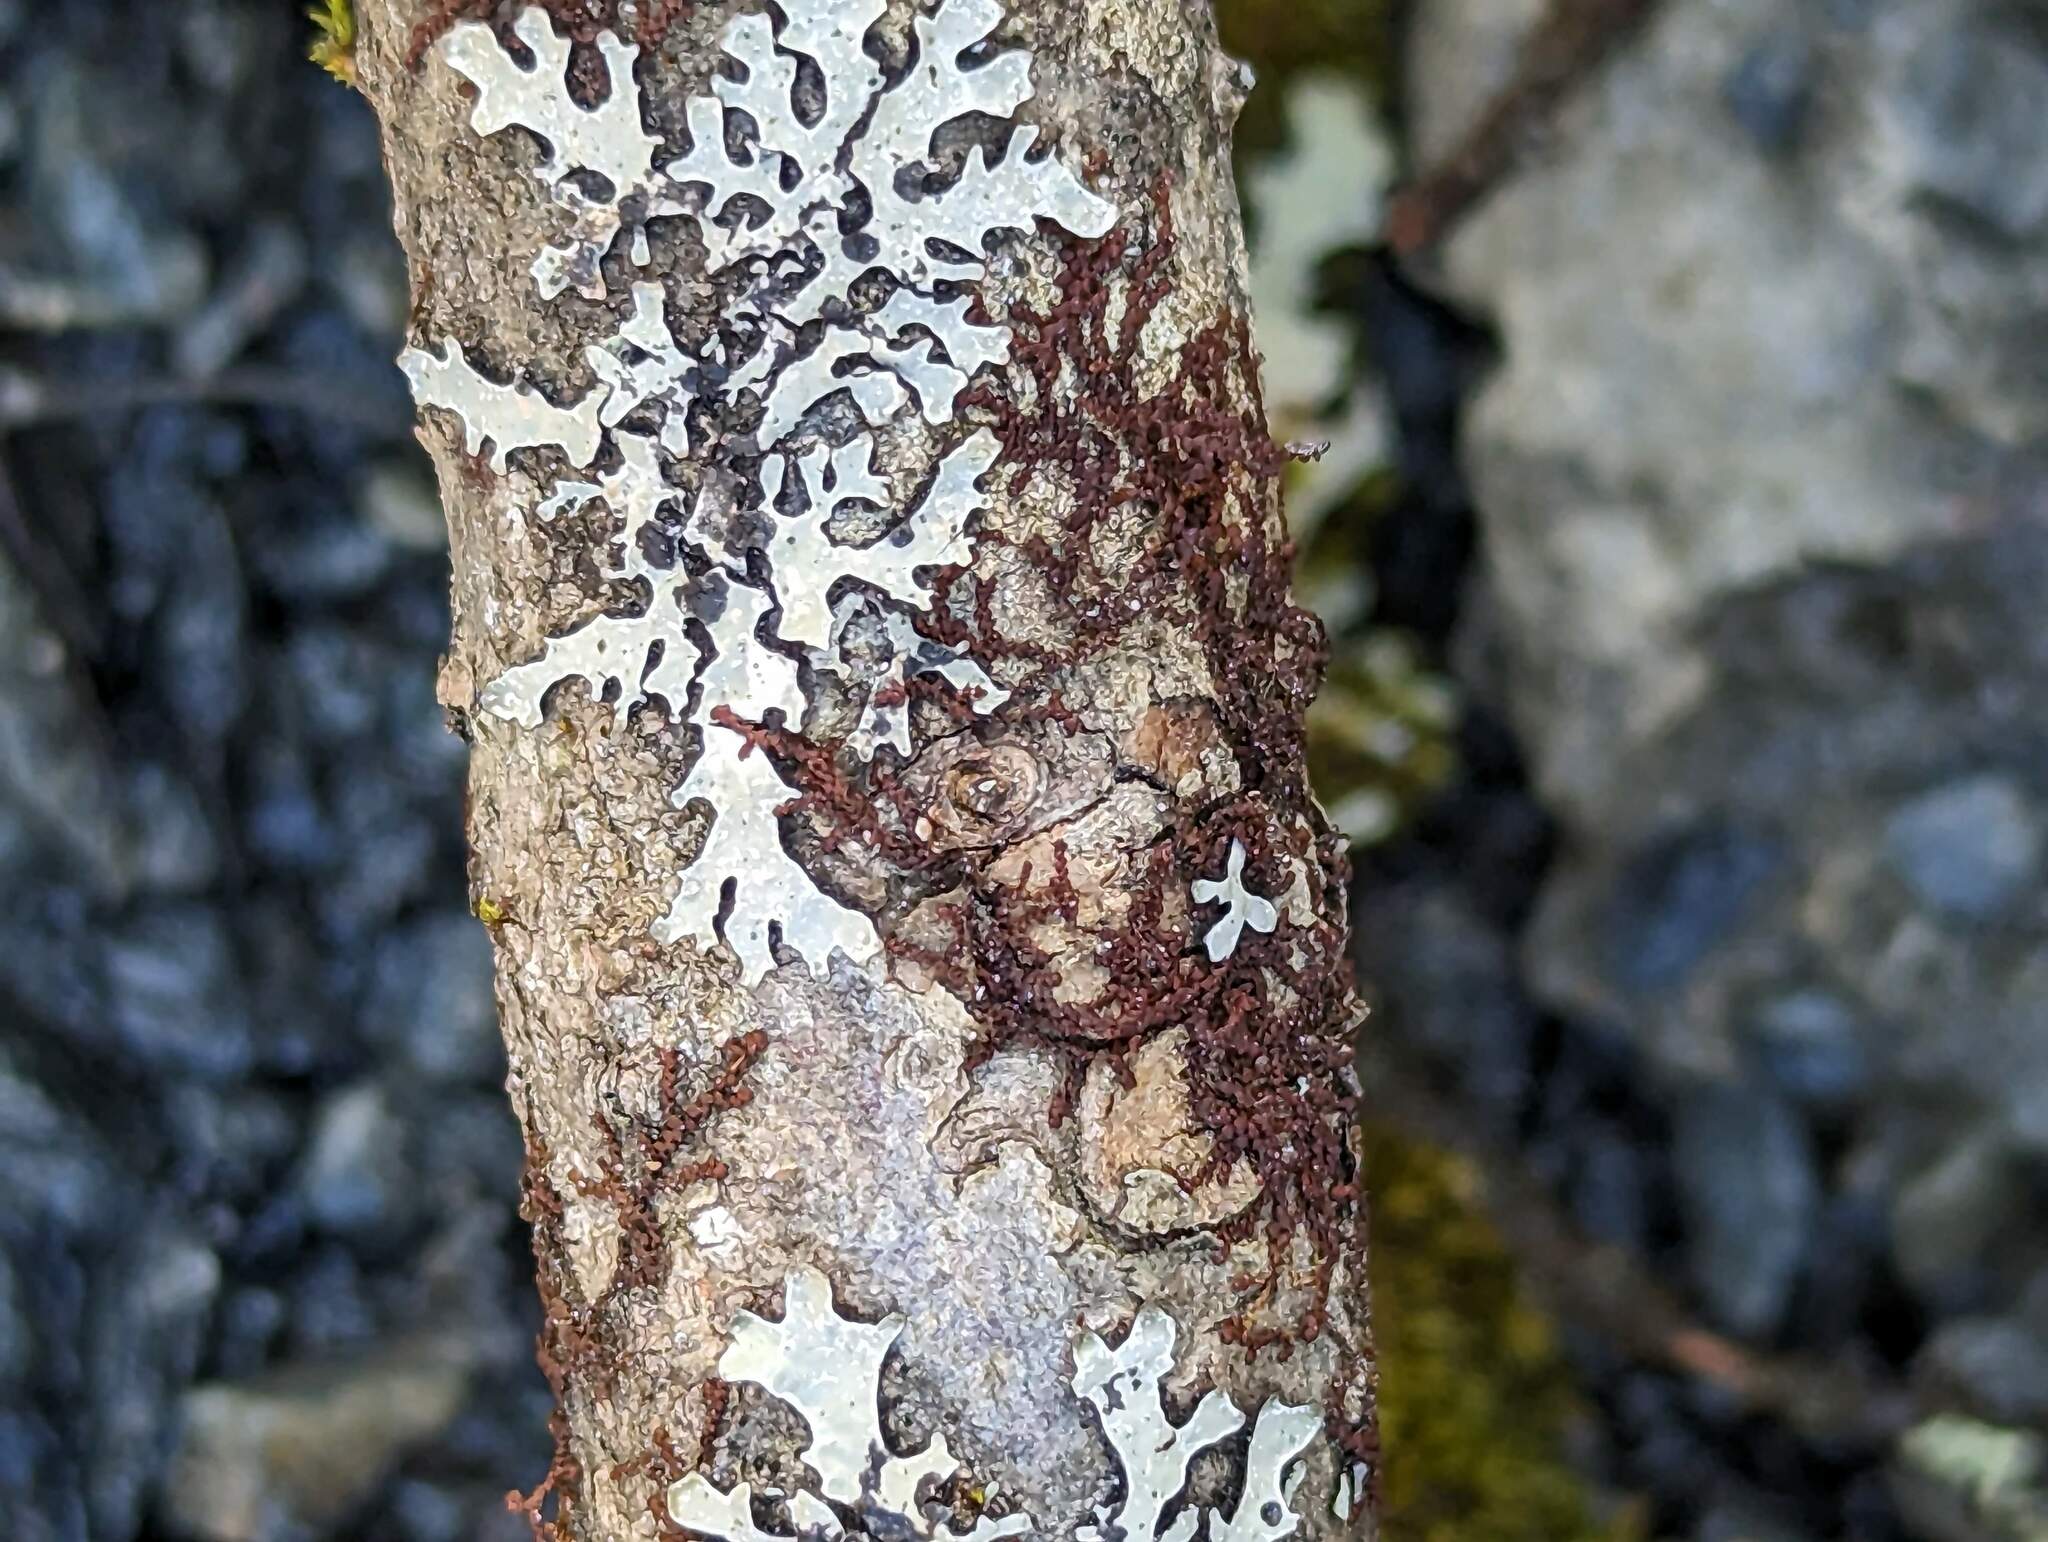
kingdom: Plantae
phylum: Marchantiophyta
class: Jungermanniopsida
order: Porellales
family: Frullaniaceae
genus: Frullania
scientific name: Frullania eboracensis
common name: New york scalewort
